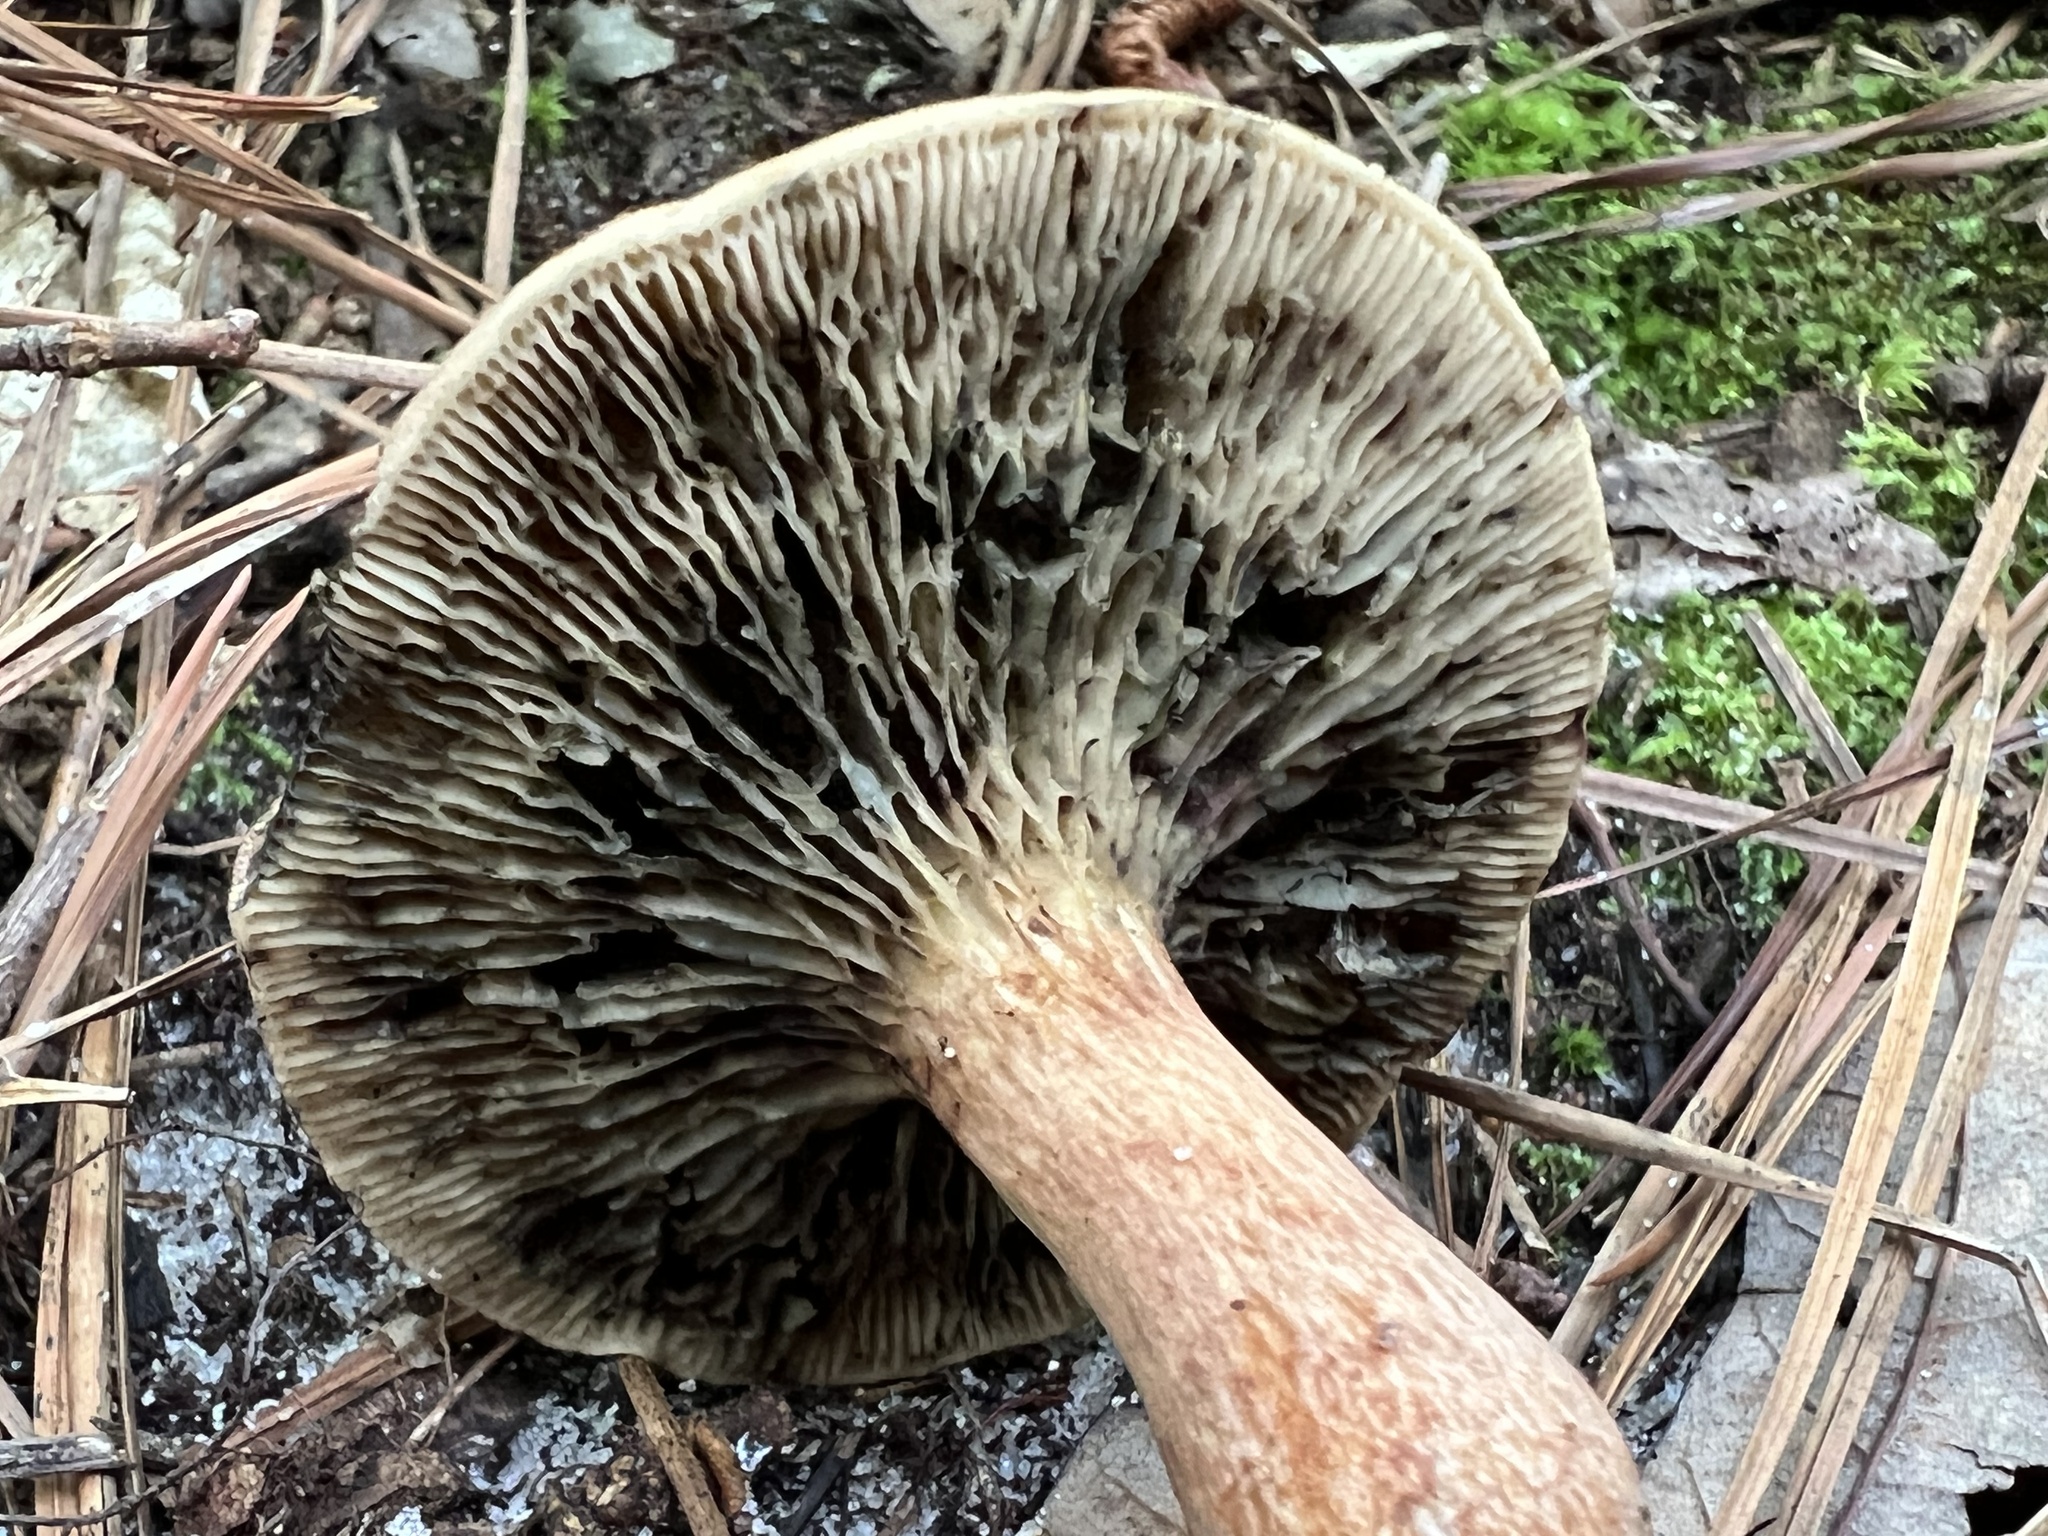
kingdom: Fungi
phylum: Basidiomycota
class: Agaricomycetes
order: Boletales
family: Boletaceae
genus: Phylloporopsis
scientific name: Phylloporopsis boletinoides
